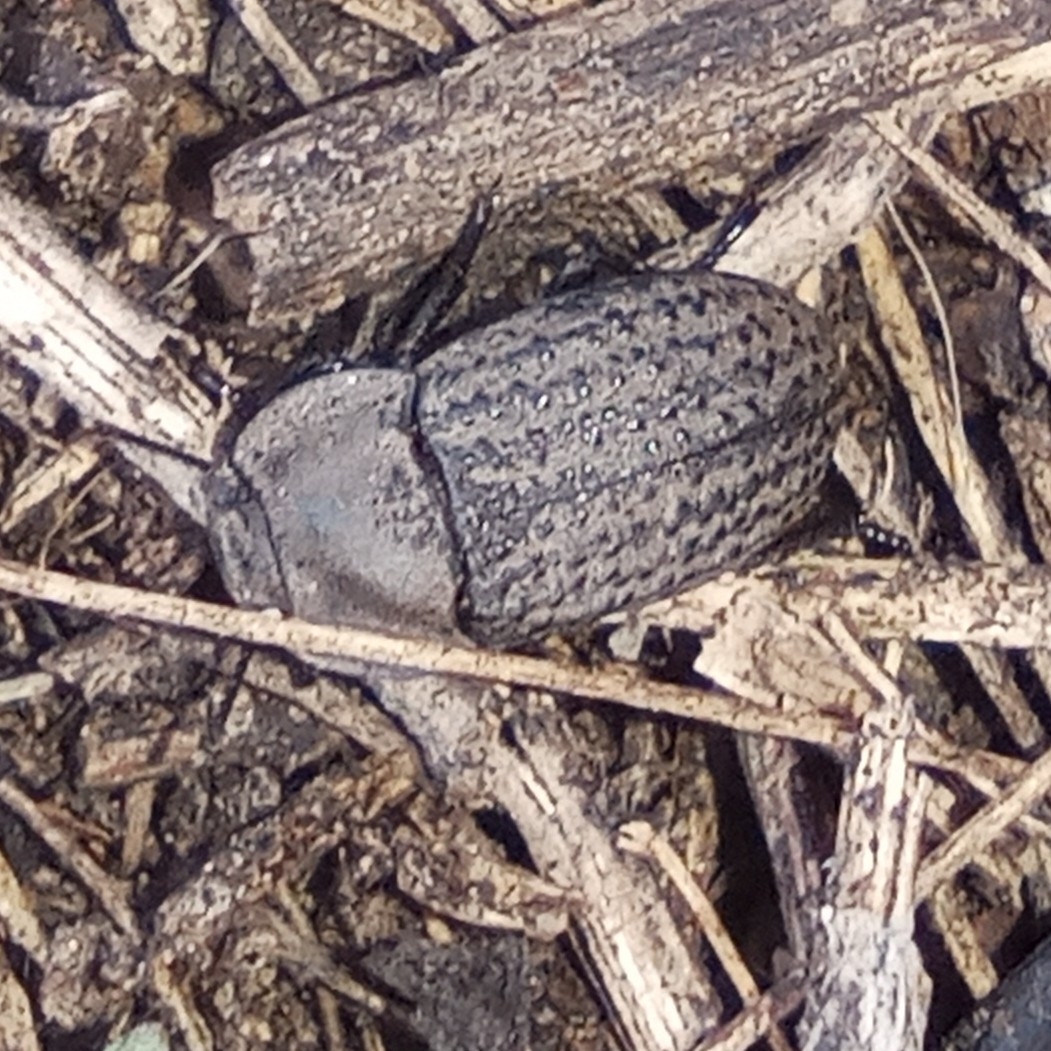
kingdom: Animalia
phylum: Arthropoda
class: Insecta
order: Coleoptera
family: Tenebrionidae
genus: Opatrum
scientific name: Opatrum sabulosum
